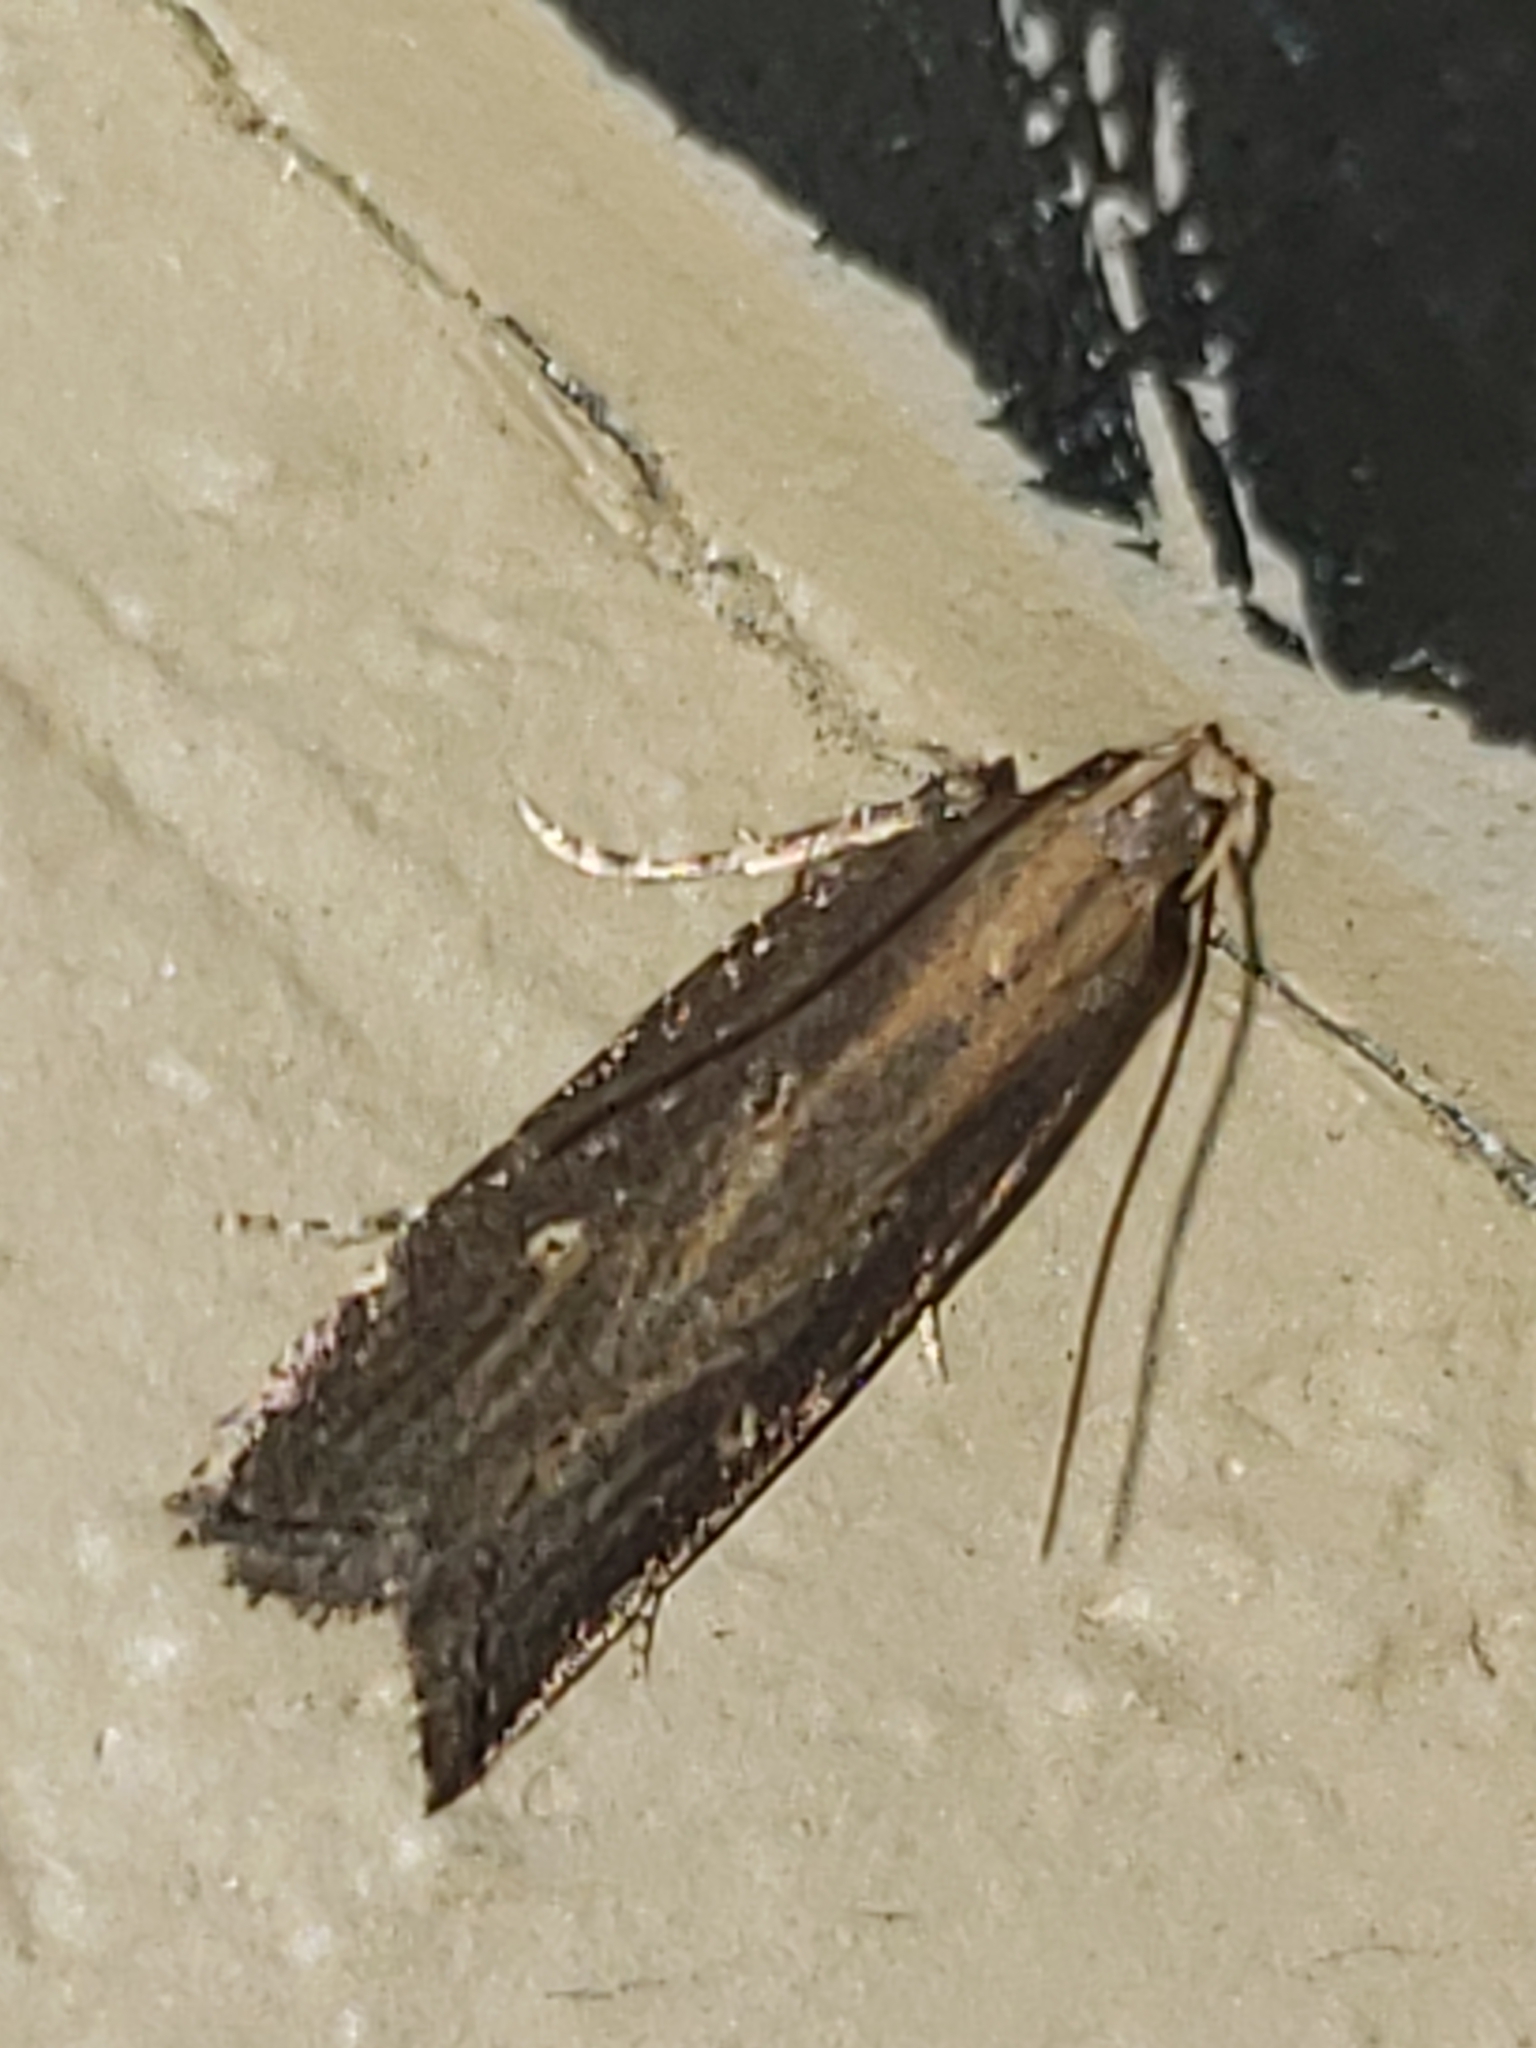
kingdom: Animalia
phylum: Arthropoda
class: Insecta
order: Lepidoptera
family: Gelechiidae
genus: Chionodes
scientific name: Chionodes discoocellella
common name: Eye-ringed chionodes moth
